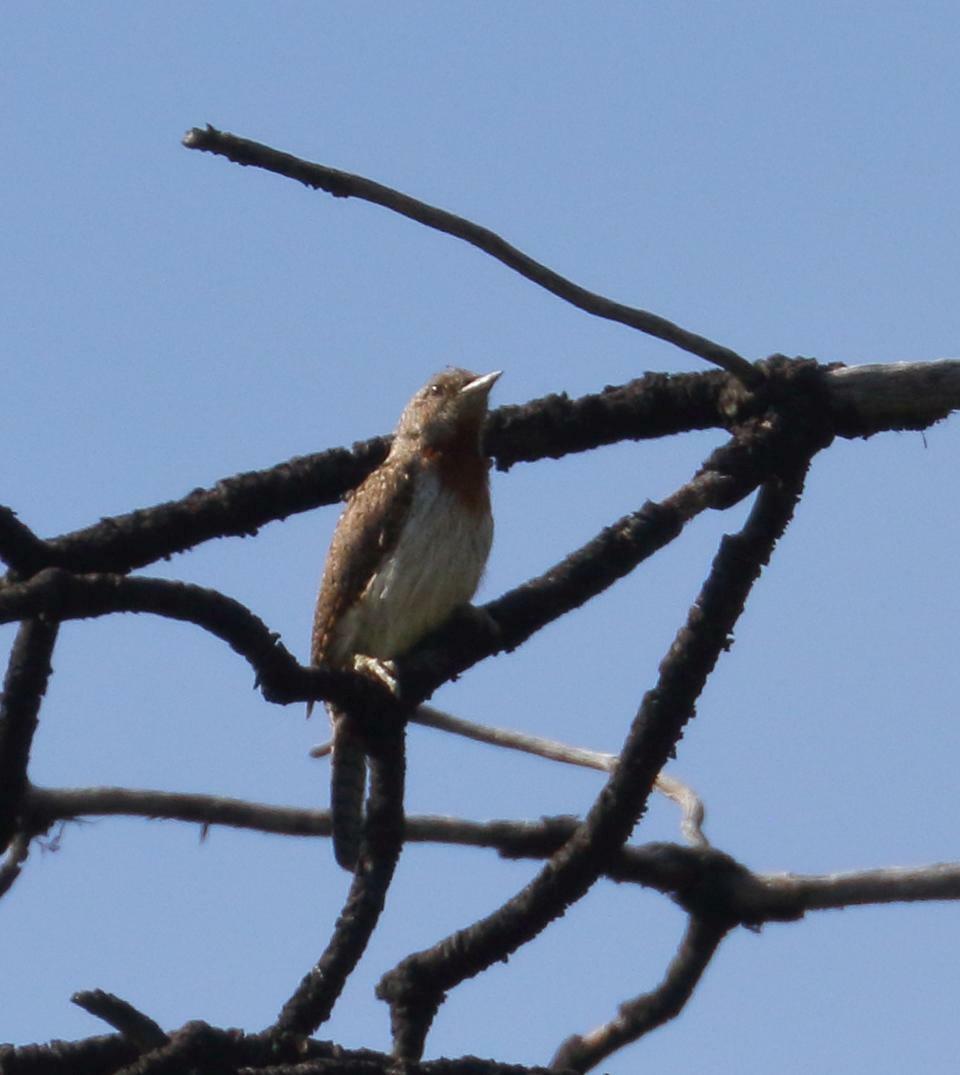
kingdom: Animalia
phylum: Chordata
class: Aves
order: Piciformes
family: Picidae
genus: Jynx
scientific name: Jynx ruficollis
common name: Red-throated wryneck
